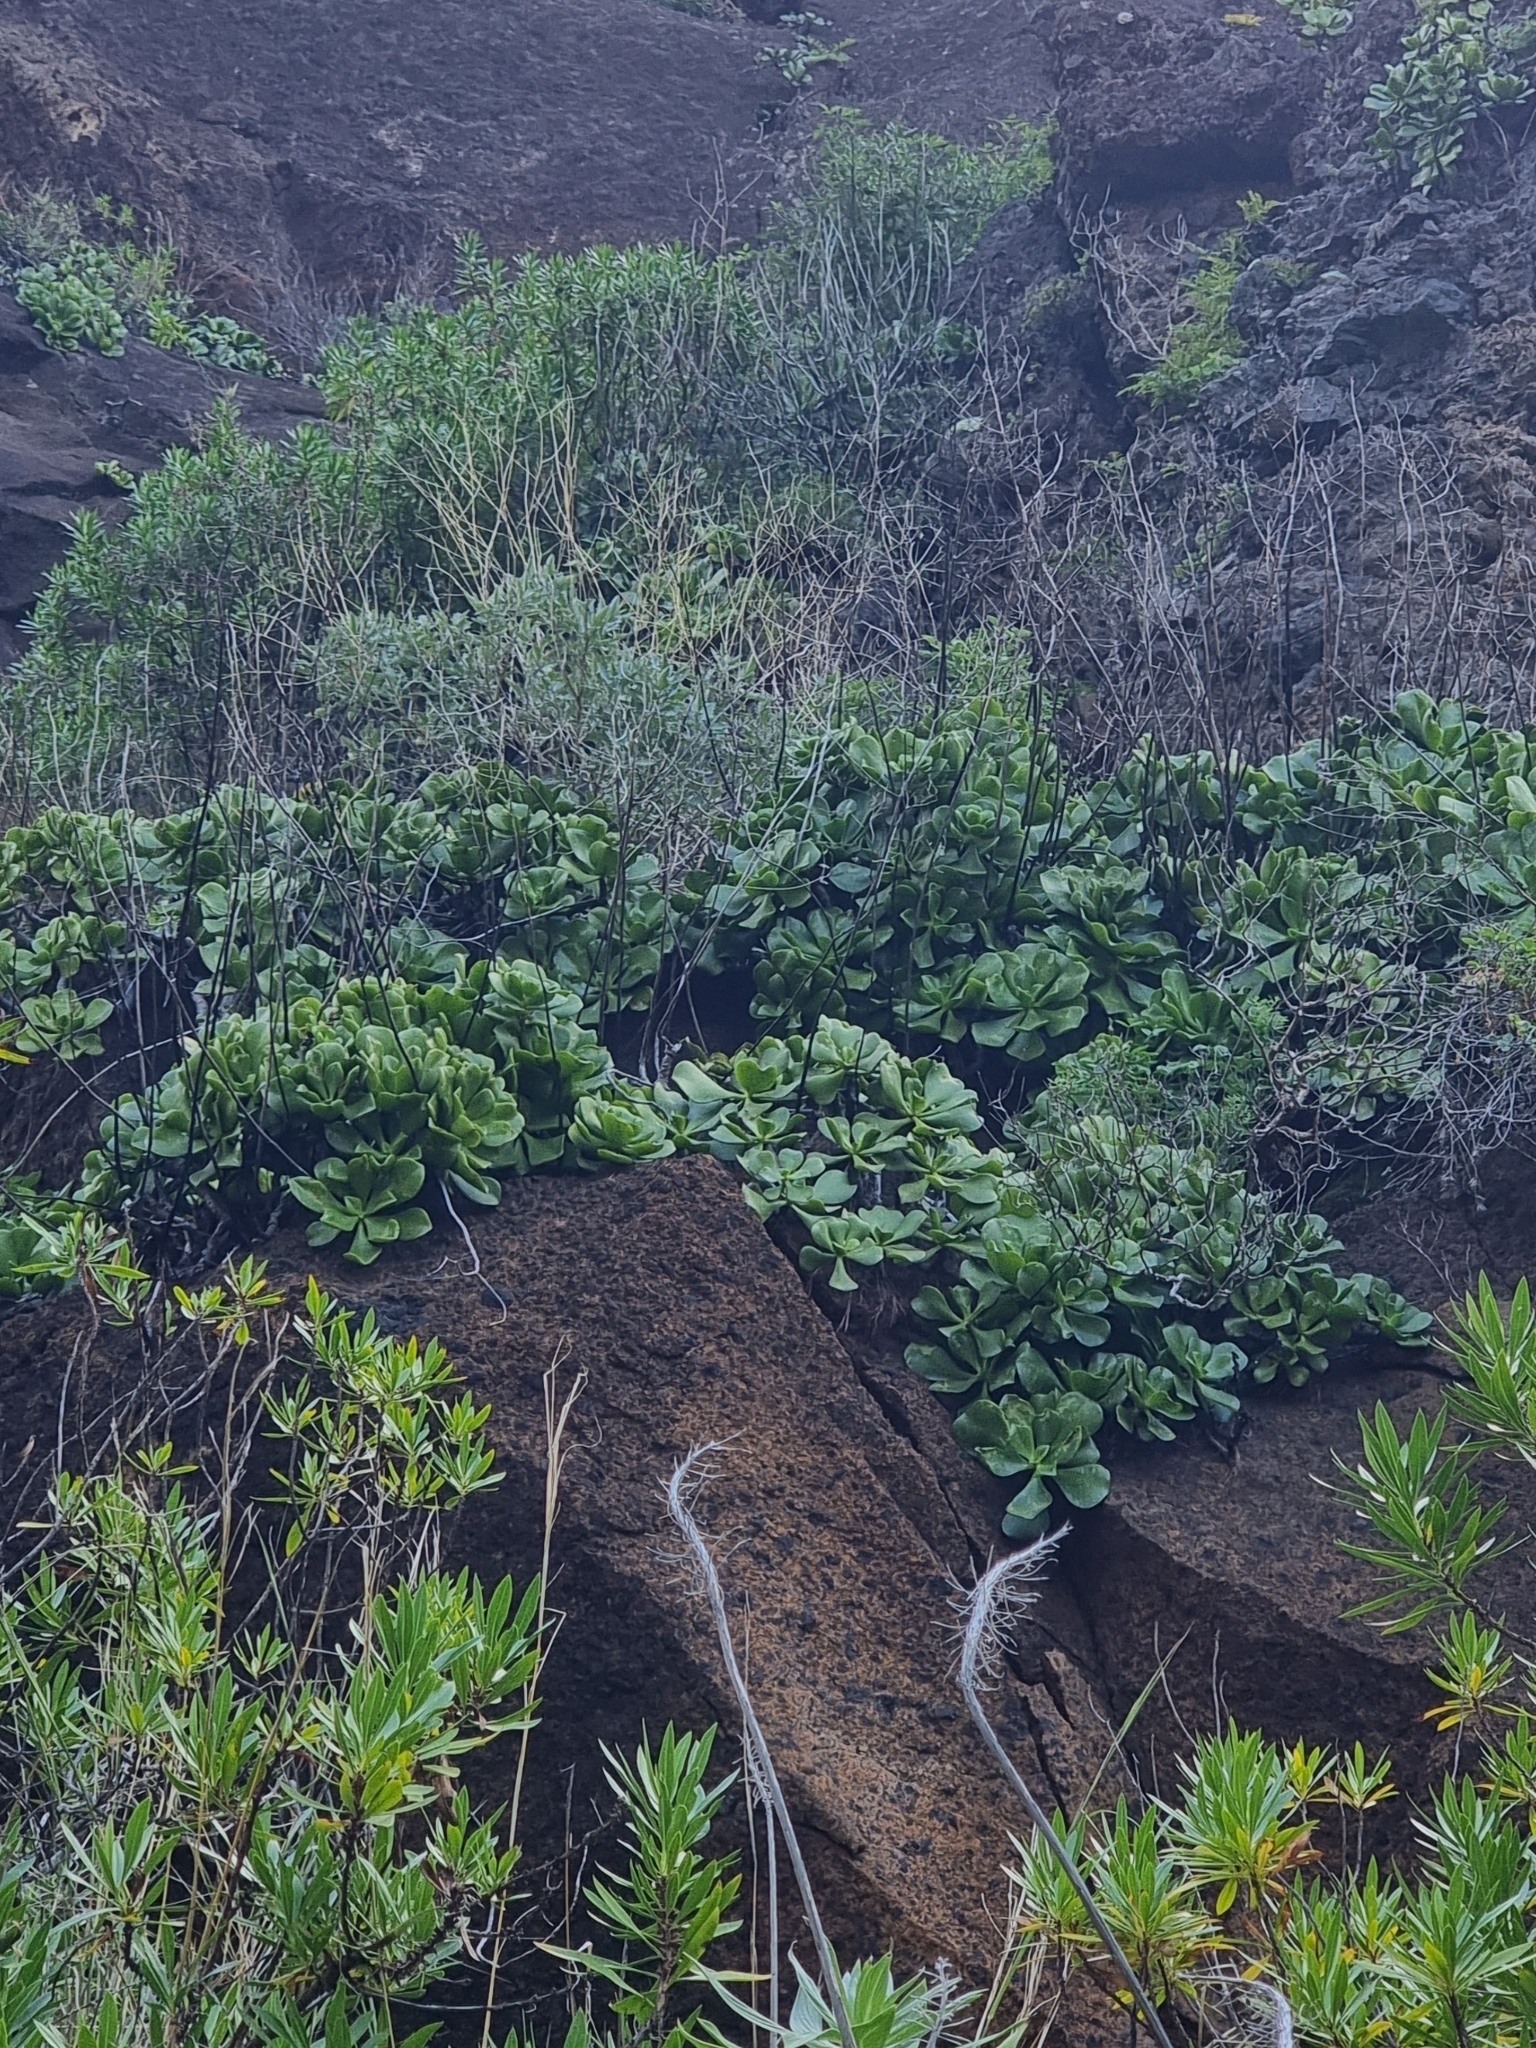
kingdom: Plantae
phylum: Tracheophyta
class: Magnoliopsida
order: Saxifragales
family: Crassulaceae
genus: Aeonium
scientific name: Aeonium glutinosum
